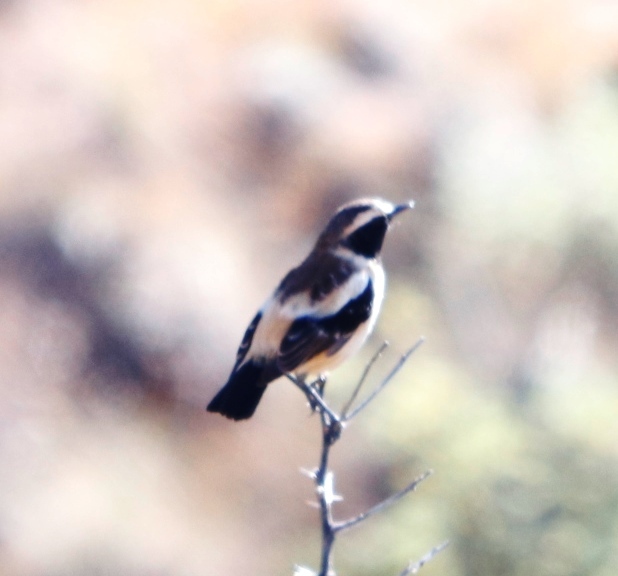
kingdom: Animalia
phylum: Chordata
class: Aves
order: Passeriformes
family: Muscicapidae
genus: Campicoloides
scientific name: Campicoloides bifasciatus
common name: Buff-streaked chat
